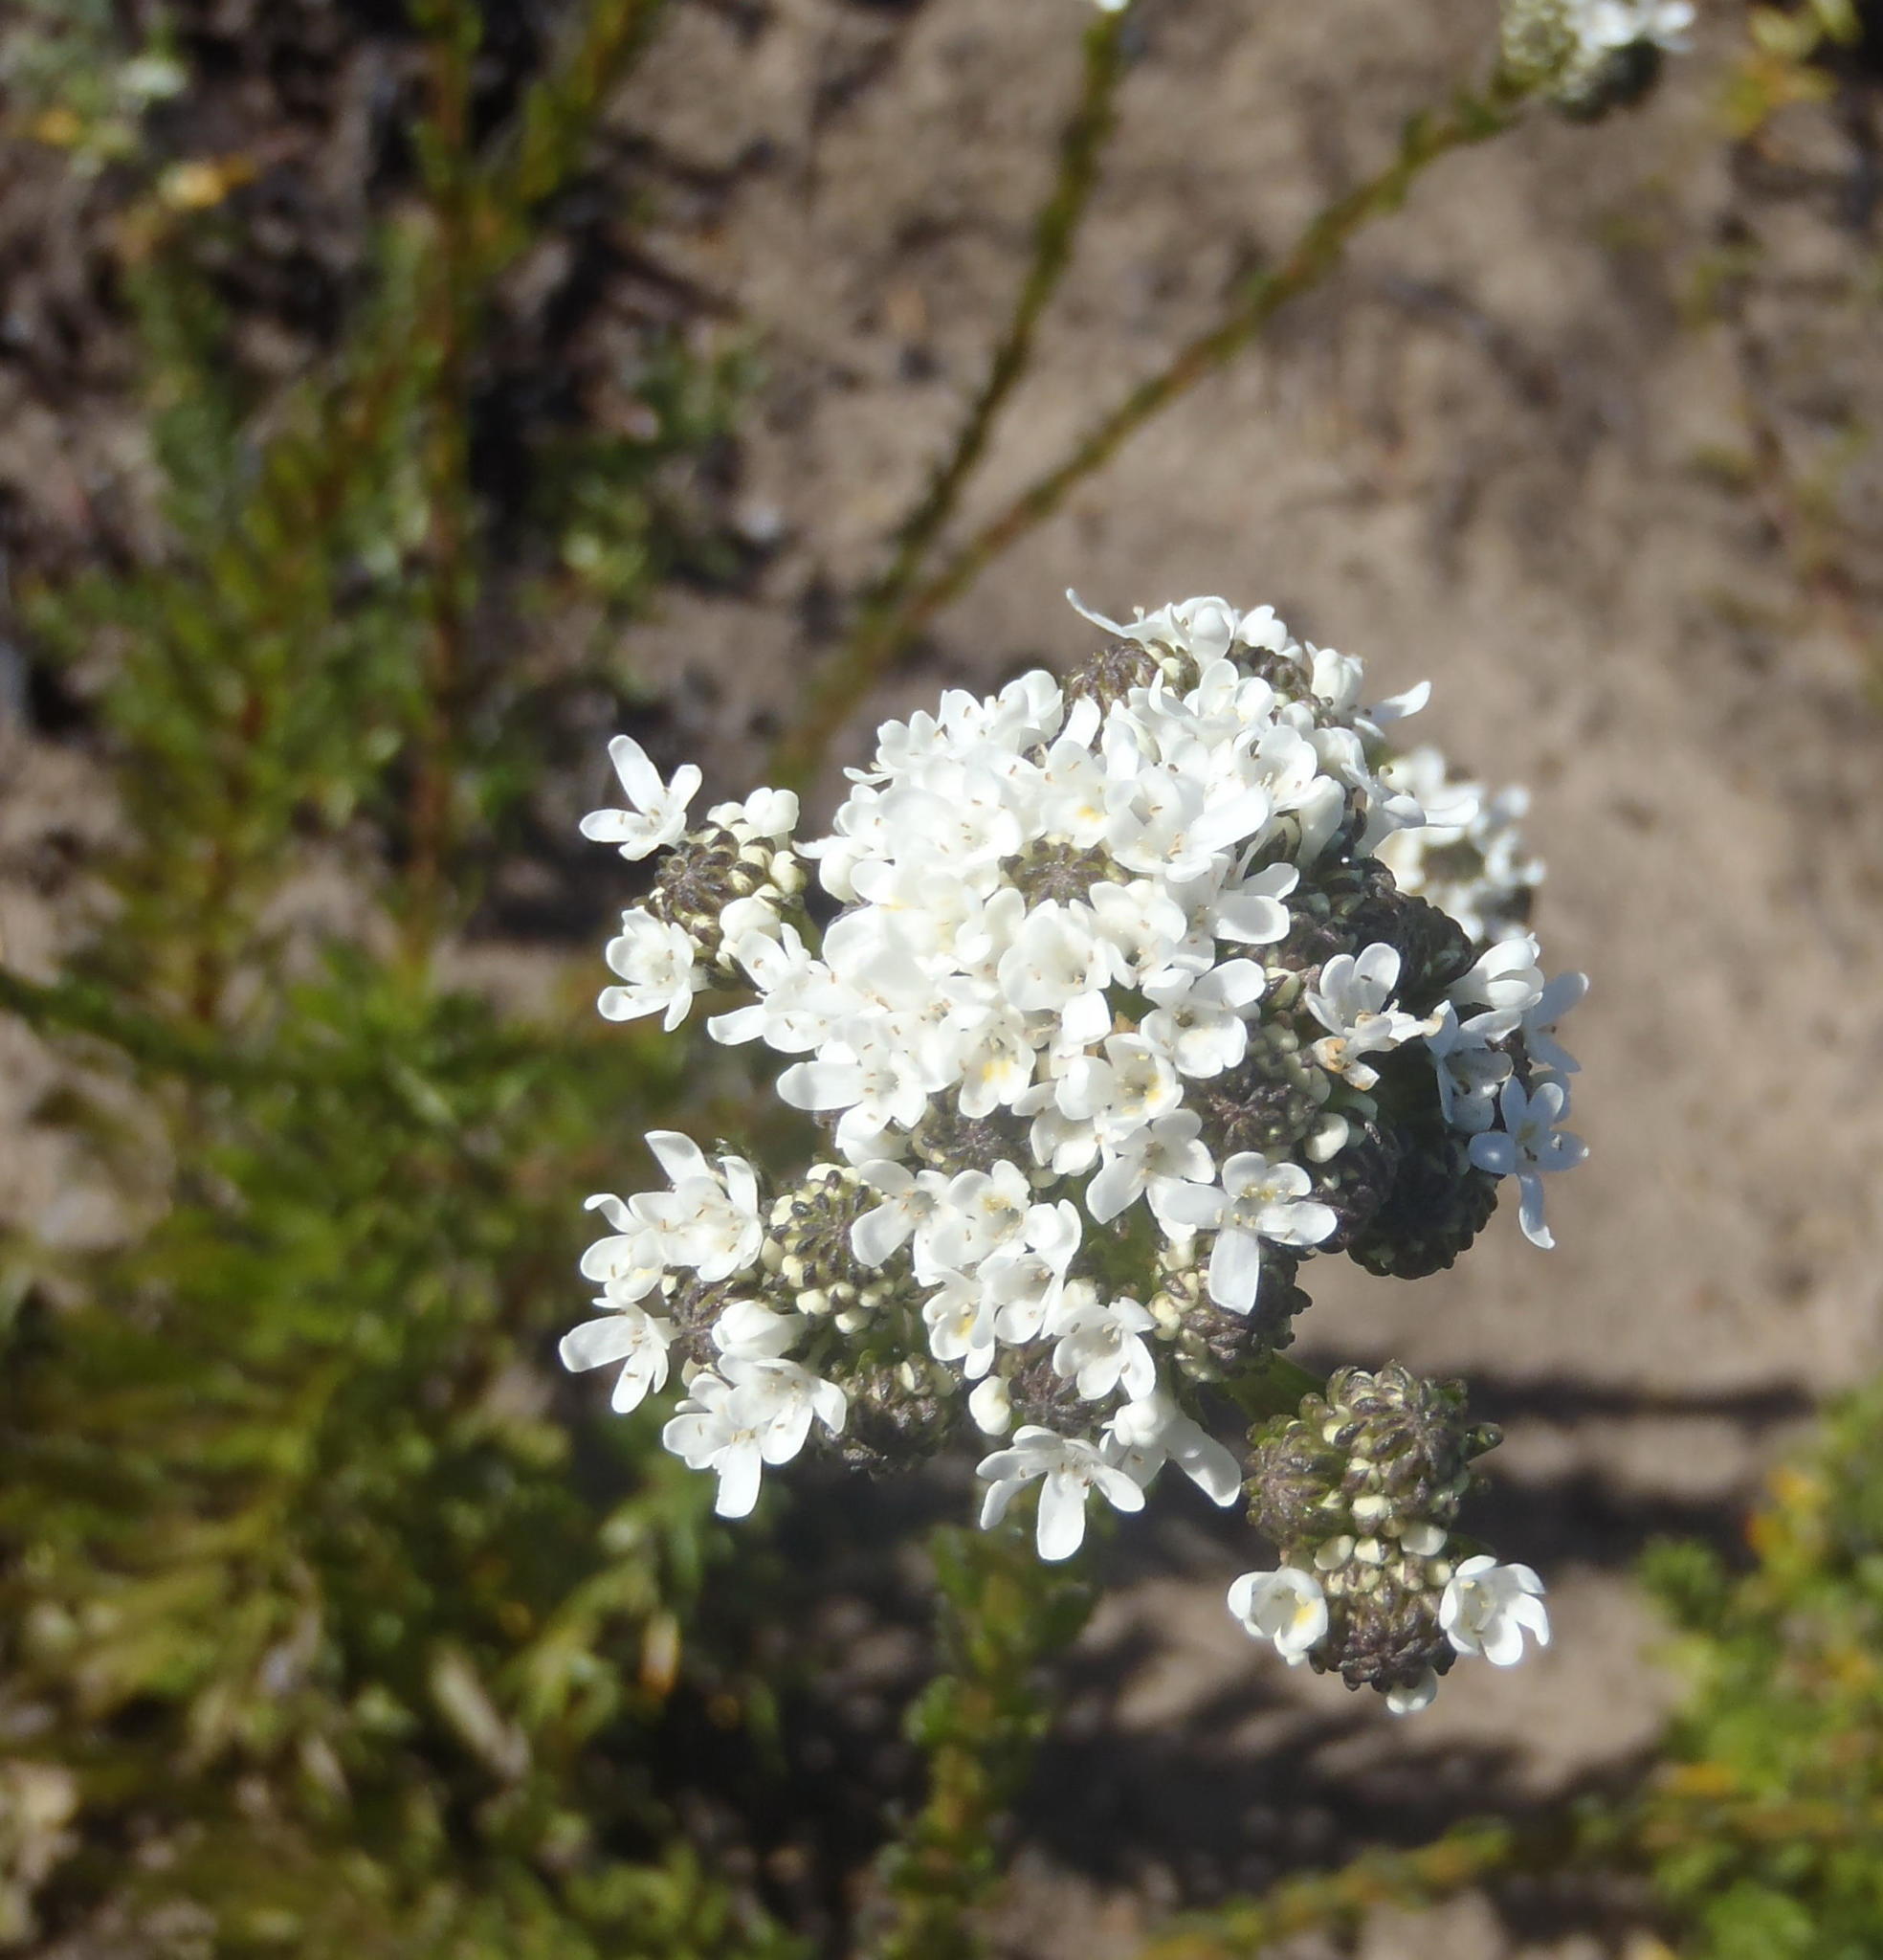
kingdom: Plantae
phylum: Tracheophyta
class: Magnoliopsida
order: Lamiales
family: Scrophulariaceae
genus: Pseudoselago
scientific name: Pseudoselago outeniquensis
